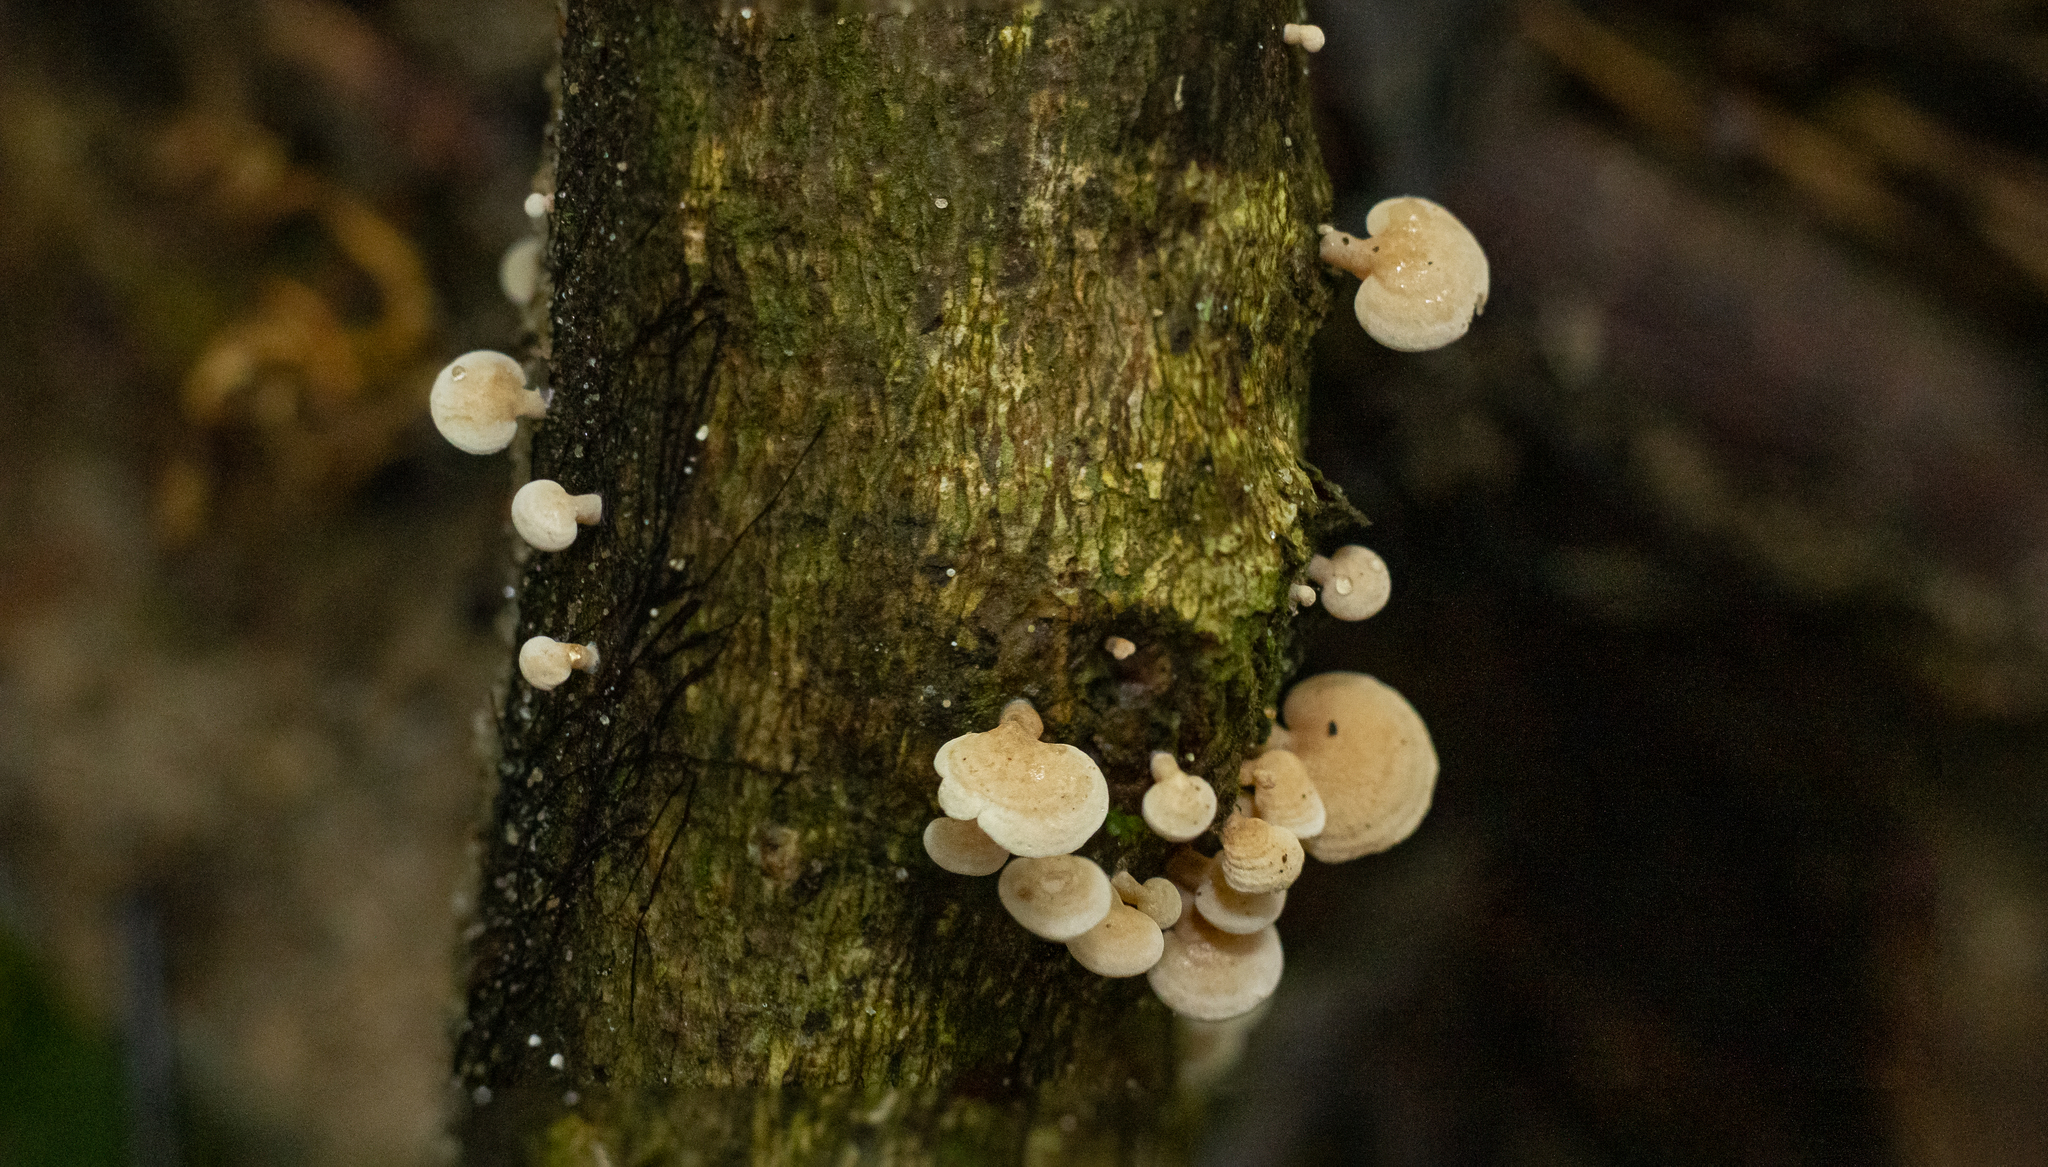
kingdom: Fungi
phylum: Basidiomycota
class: Agaricomycetes
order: Agaricales
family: Mycenaceae
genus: Panellus
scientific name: Panellus pusillus
